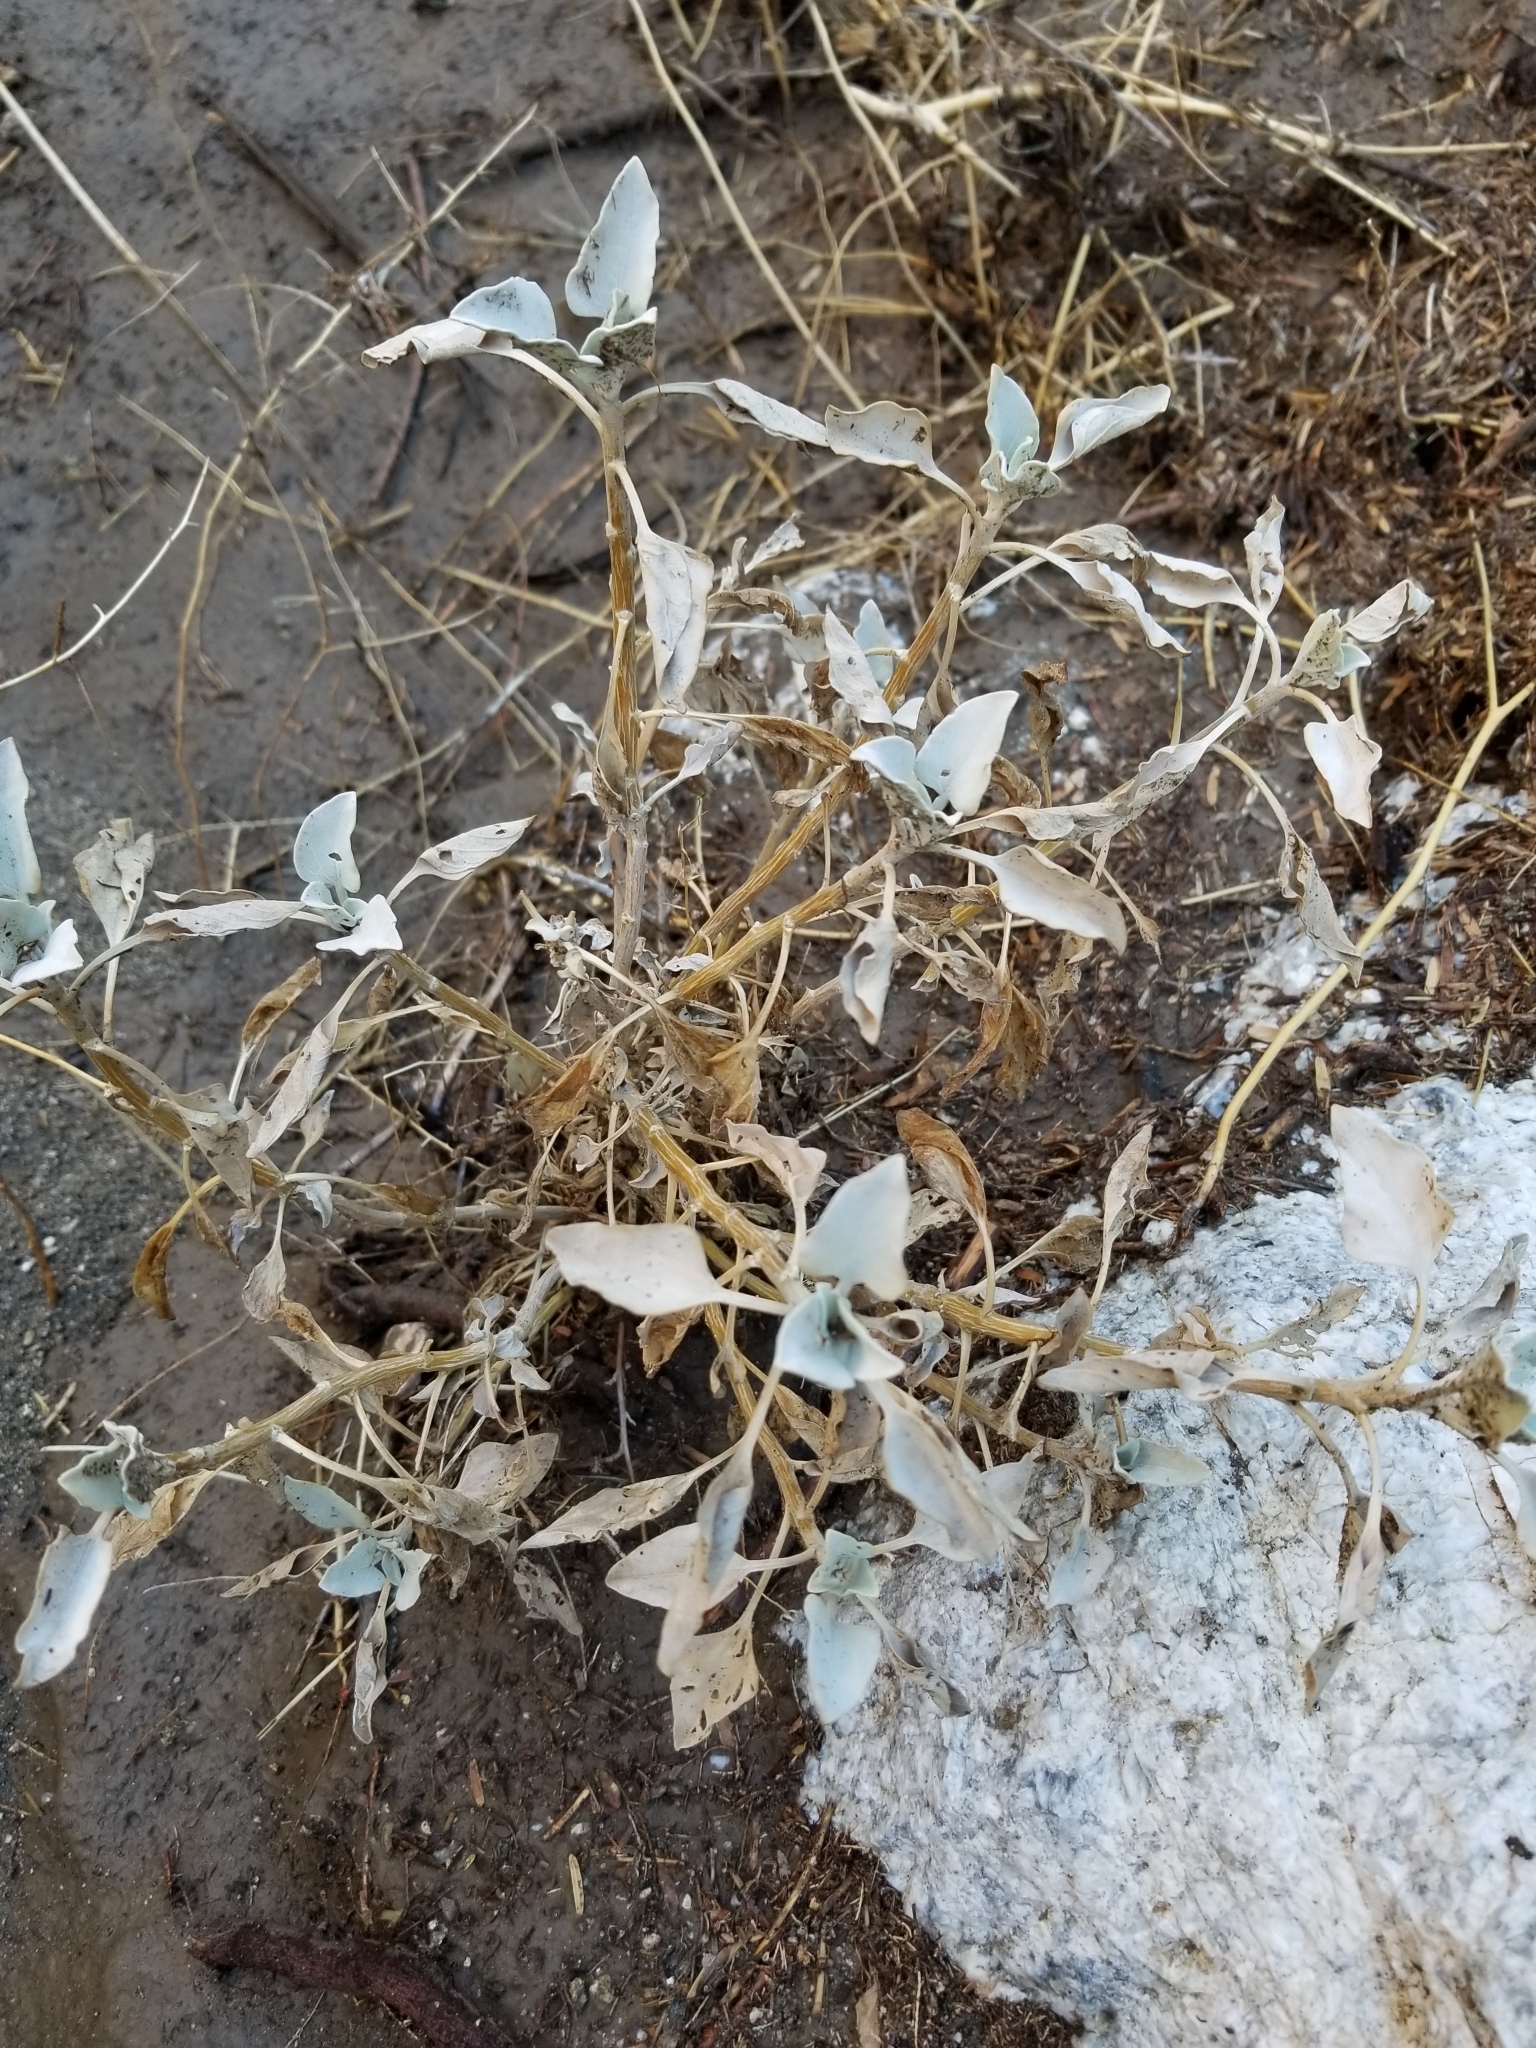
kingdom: Plantae
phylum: Tracheophyta
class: Magnoliopsida
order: Asterales
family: Asteraceae
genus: Encelia
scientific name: Encelia farinosa
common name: Brittlebush
